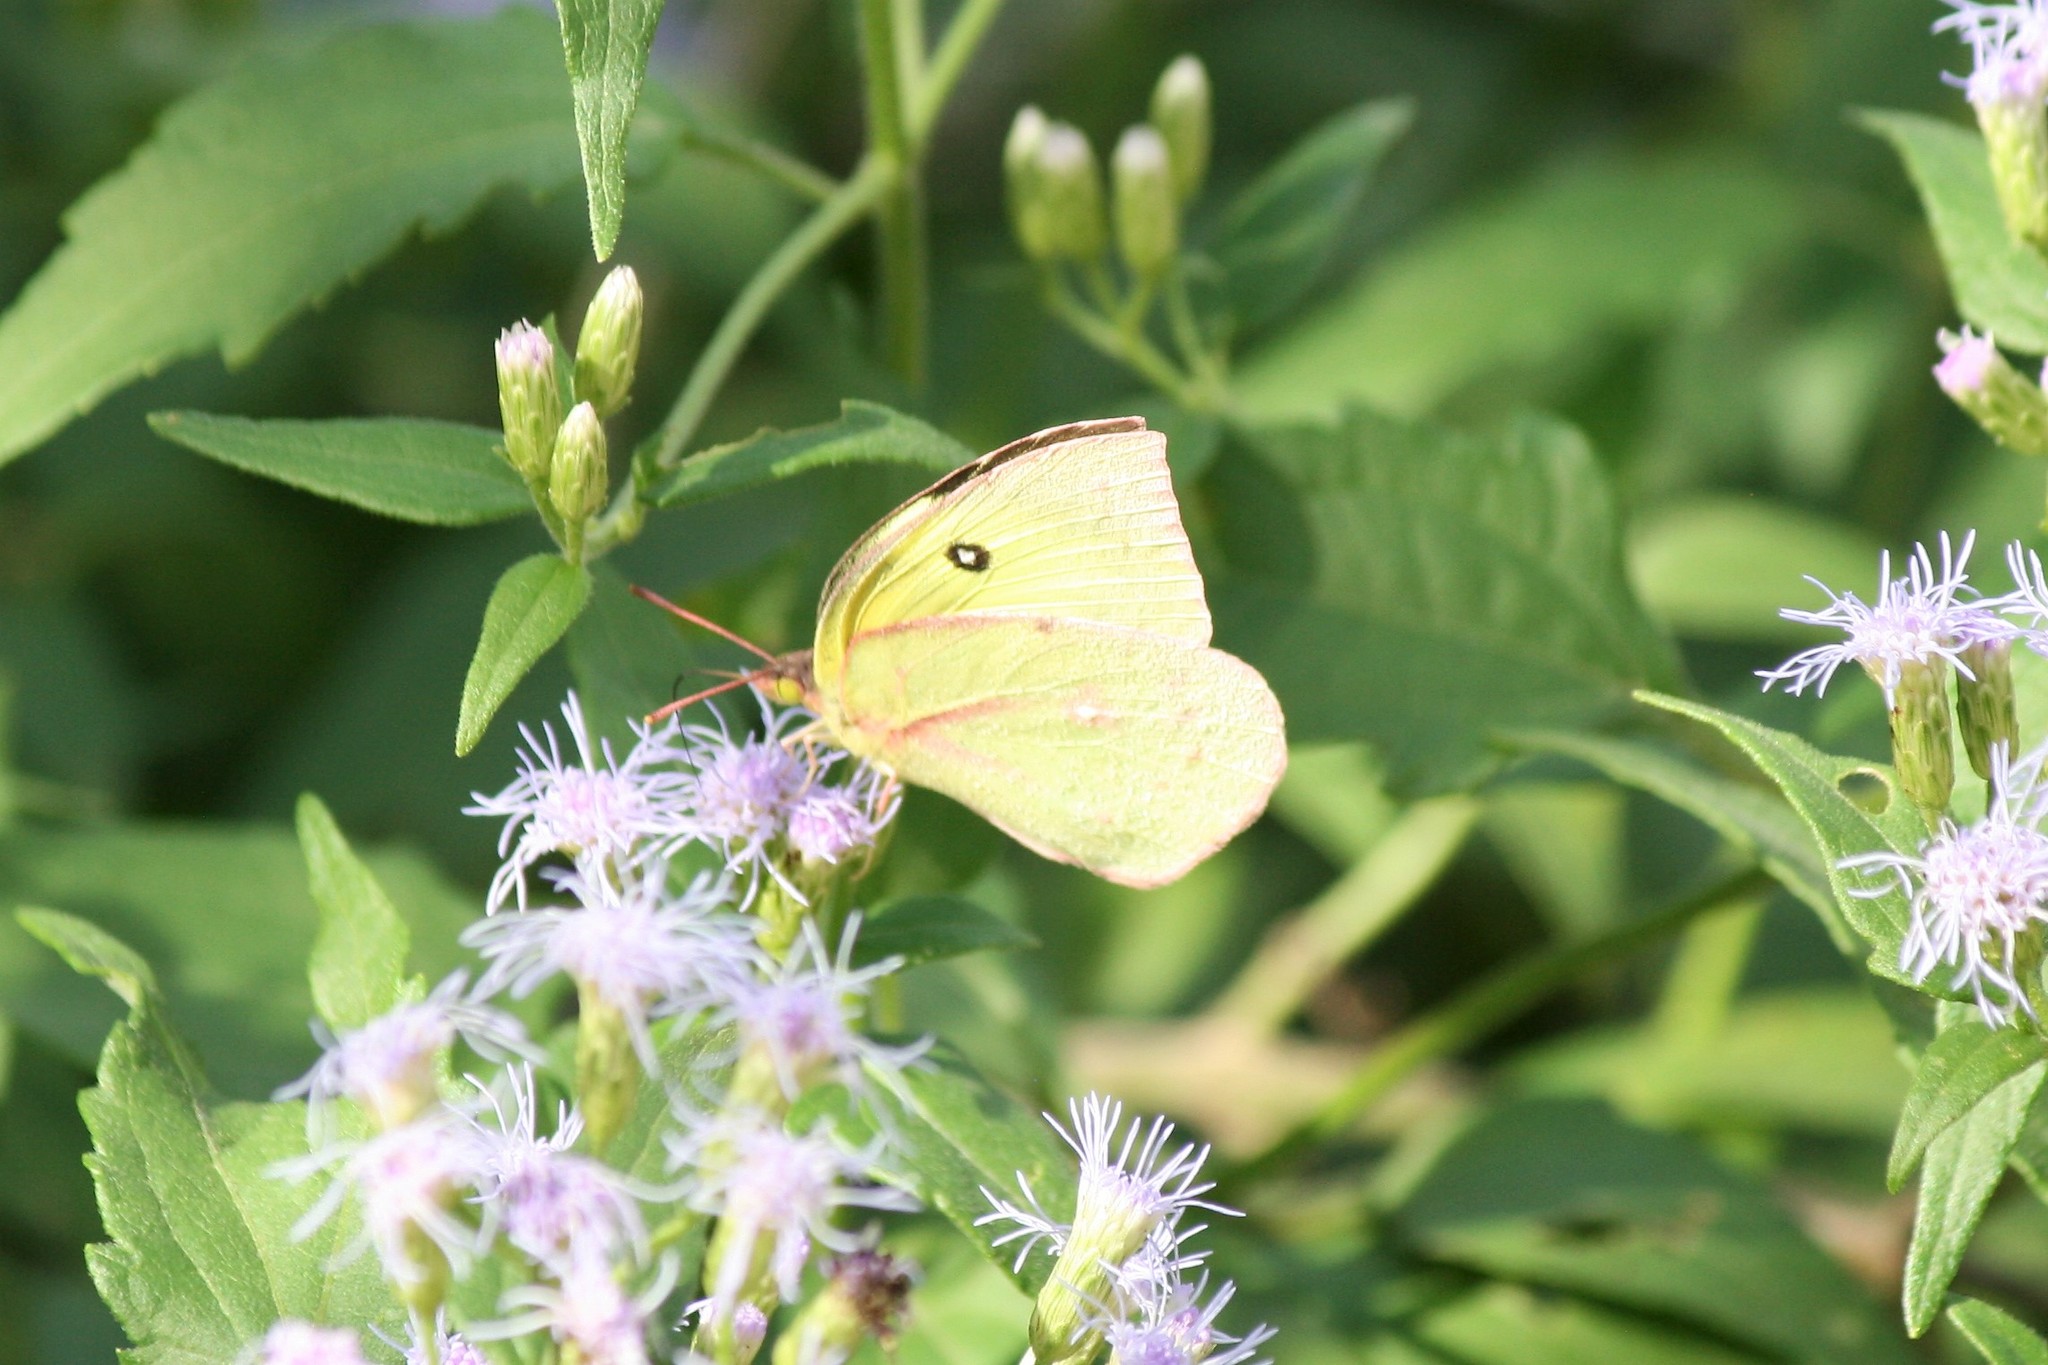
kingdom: Animalia
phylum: Arthropoda
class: Insecta
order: Lepidoptera
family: Pieridae
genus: Zerene
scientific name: Zerene cesonia
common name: Southern dogface
